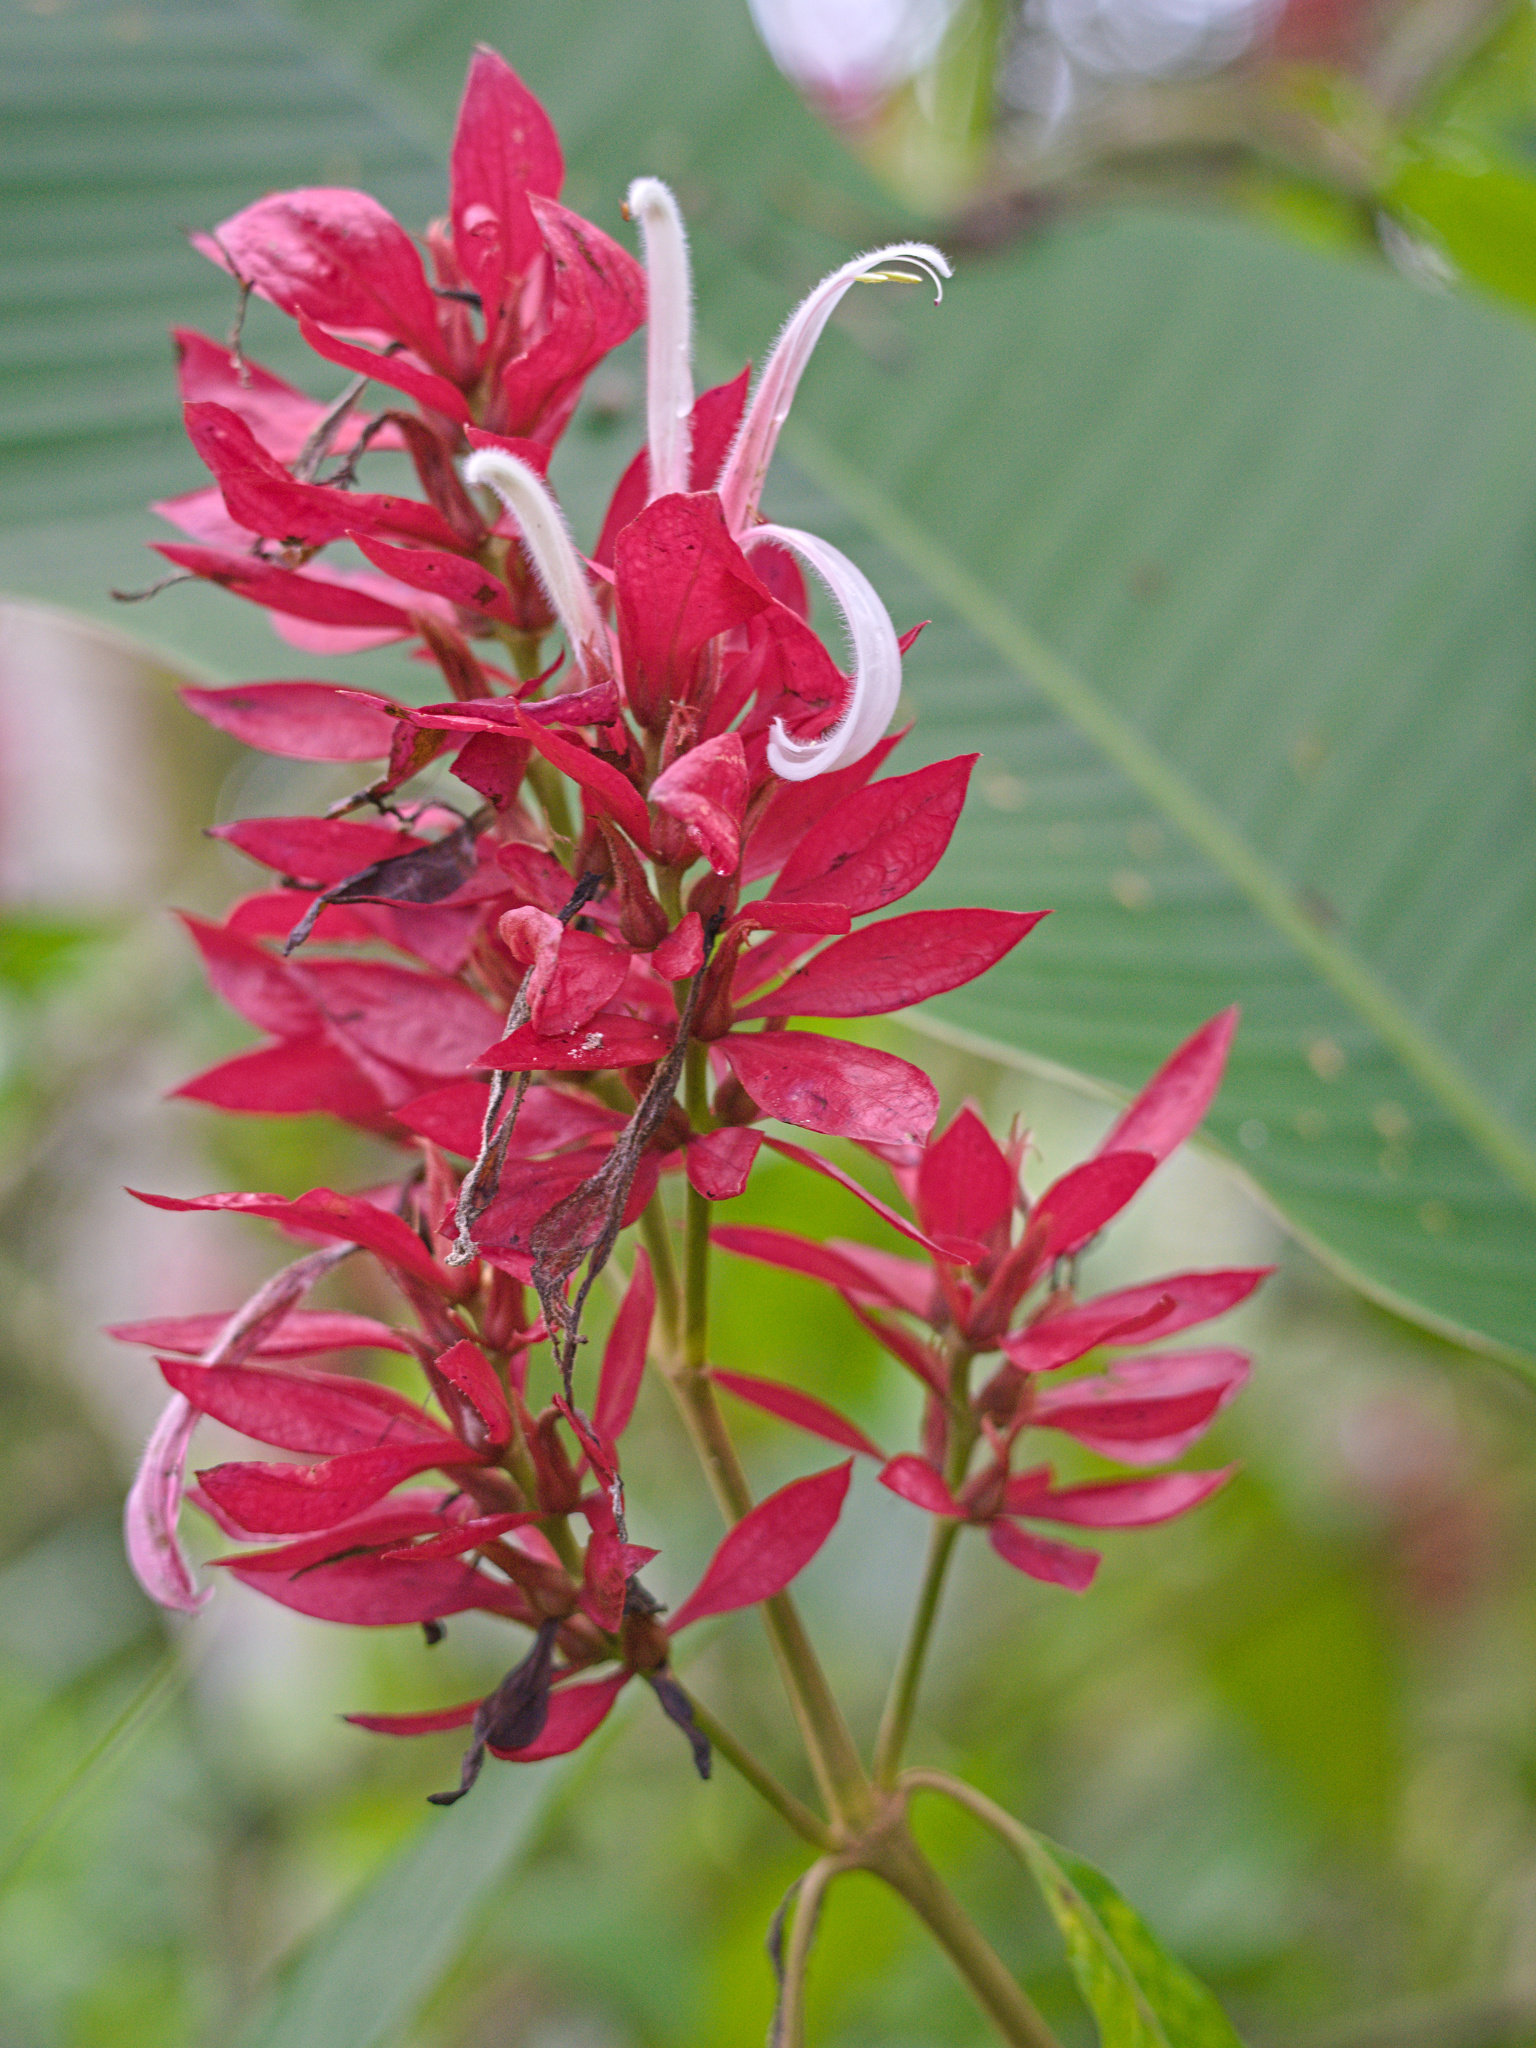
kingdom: Plantae
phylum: Tracheophyta
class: Magnoliopsida
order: Lamiales
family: Acanthaceae
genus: Megaskepasma
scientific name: Megaskepasma erythrochlamys
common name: Brazilian red-cloak
